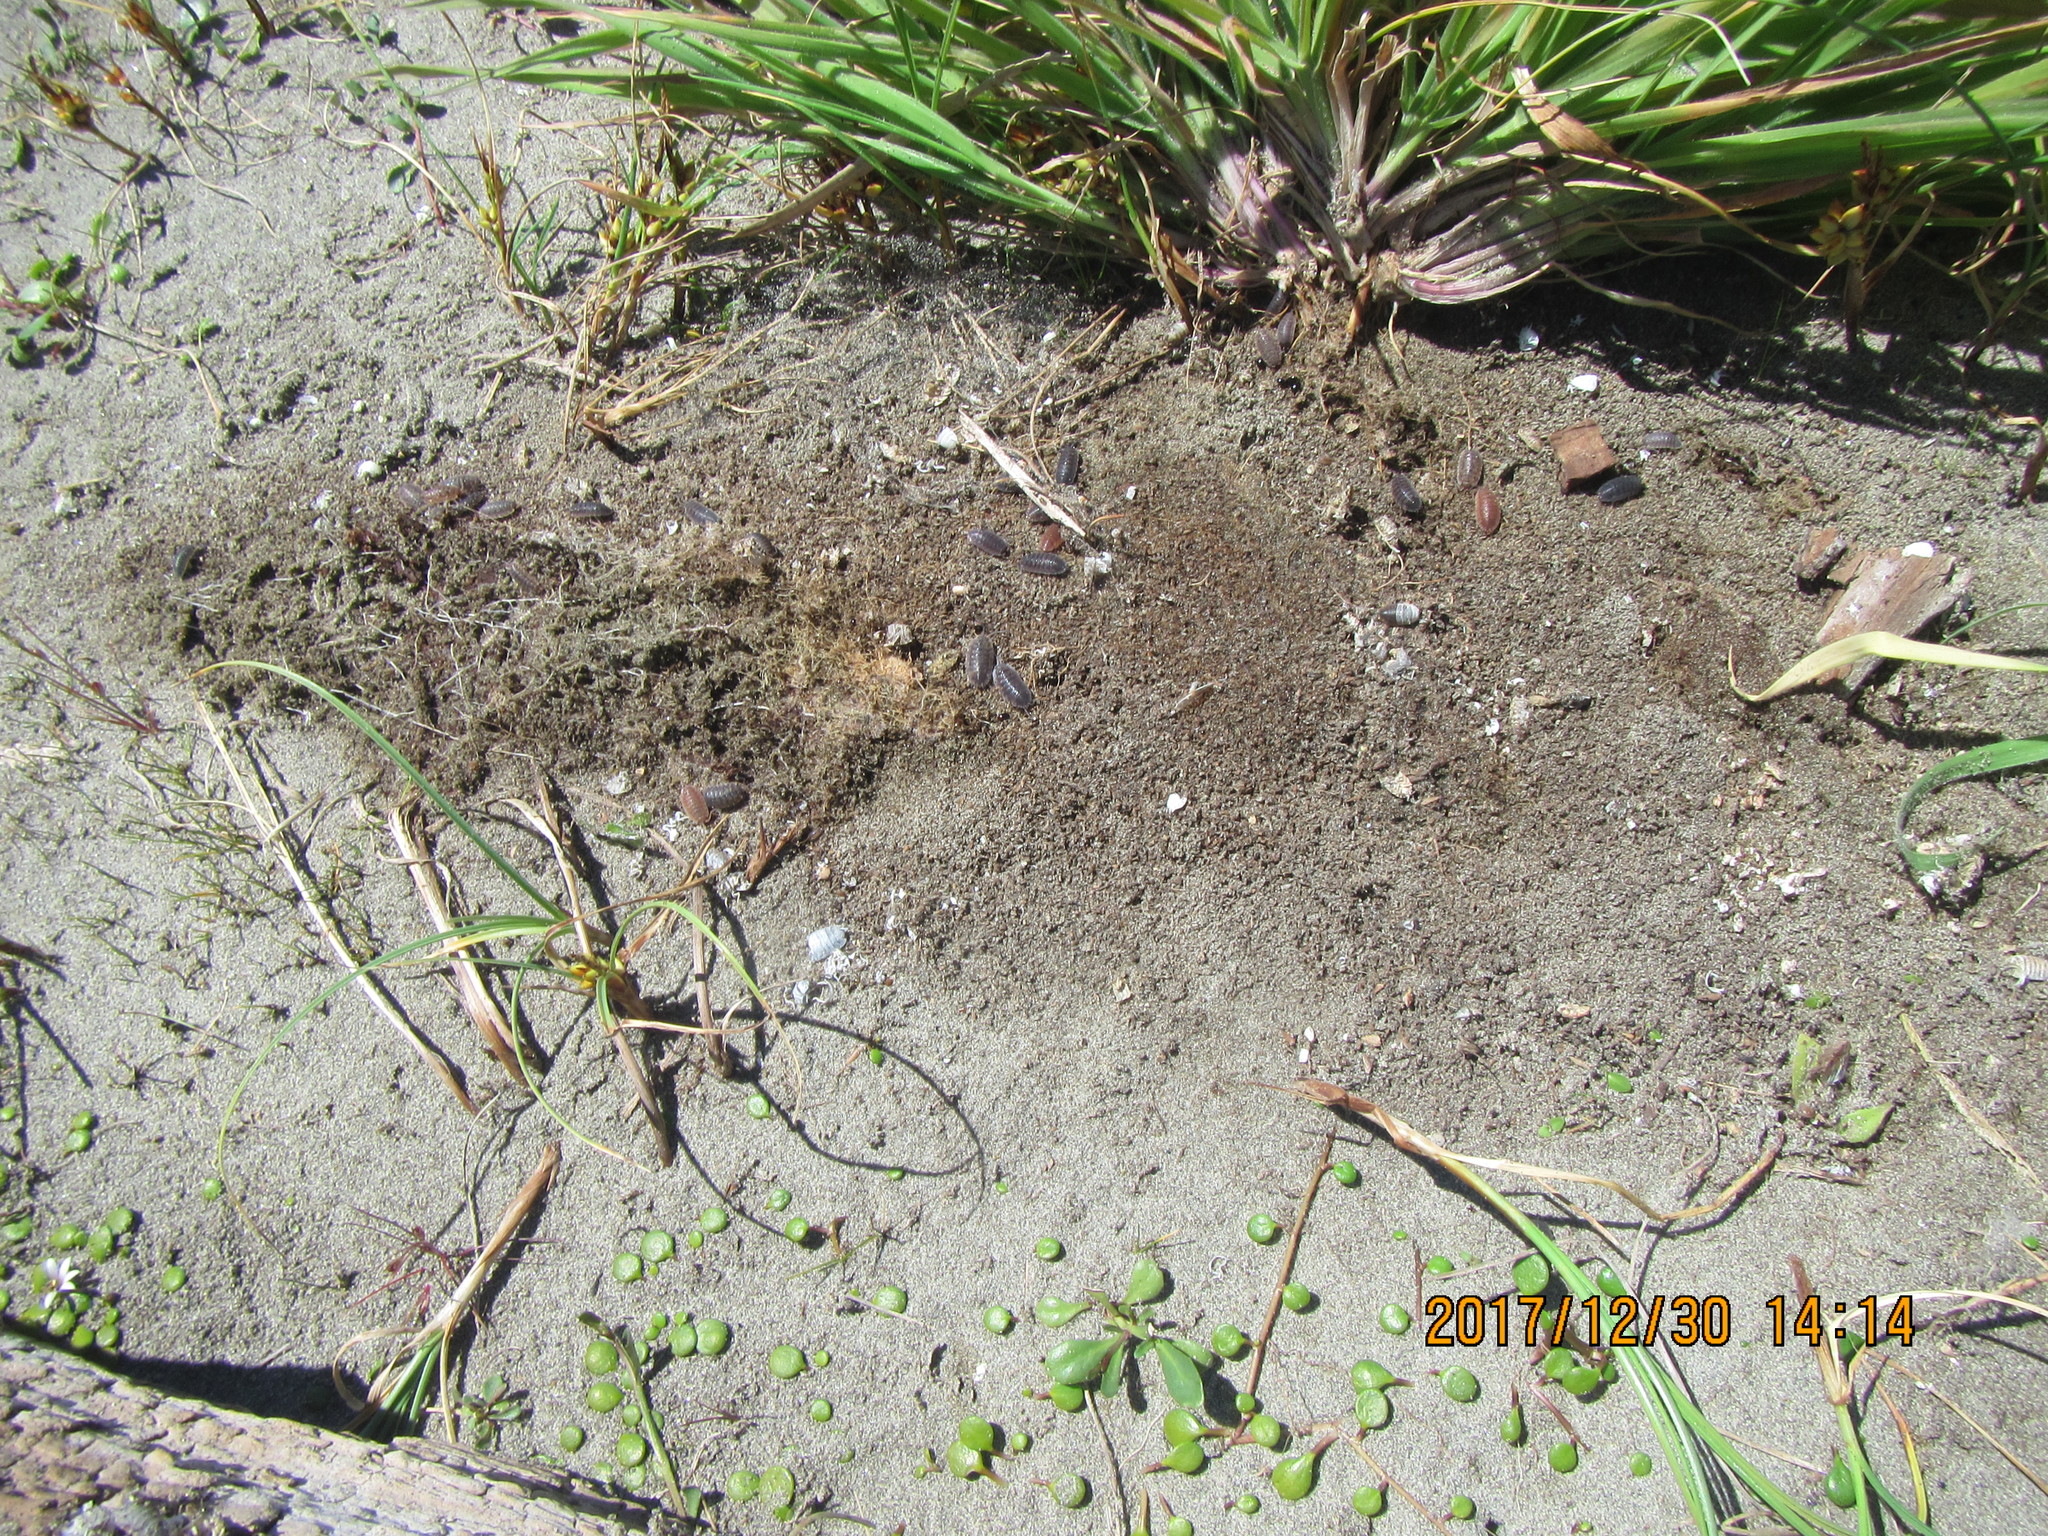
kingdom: Animalia
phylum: Arthropoda
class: Malacostraca
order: Isopoda
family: Porcellionidae
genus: Porcellio
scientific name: Porcellio scaber
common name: Common rough woodlouse
